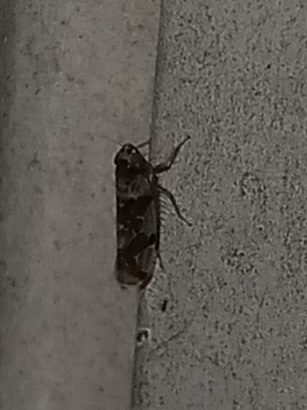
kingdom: Animalia
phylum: Arthropoda
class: Insecta
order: Hemiptera
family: Cicadellidae
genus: Sanctanus
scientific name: Sanctanus tectus
